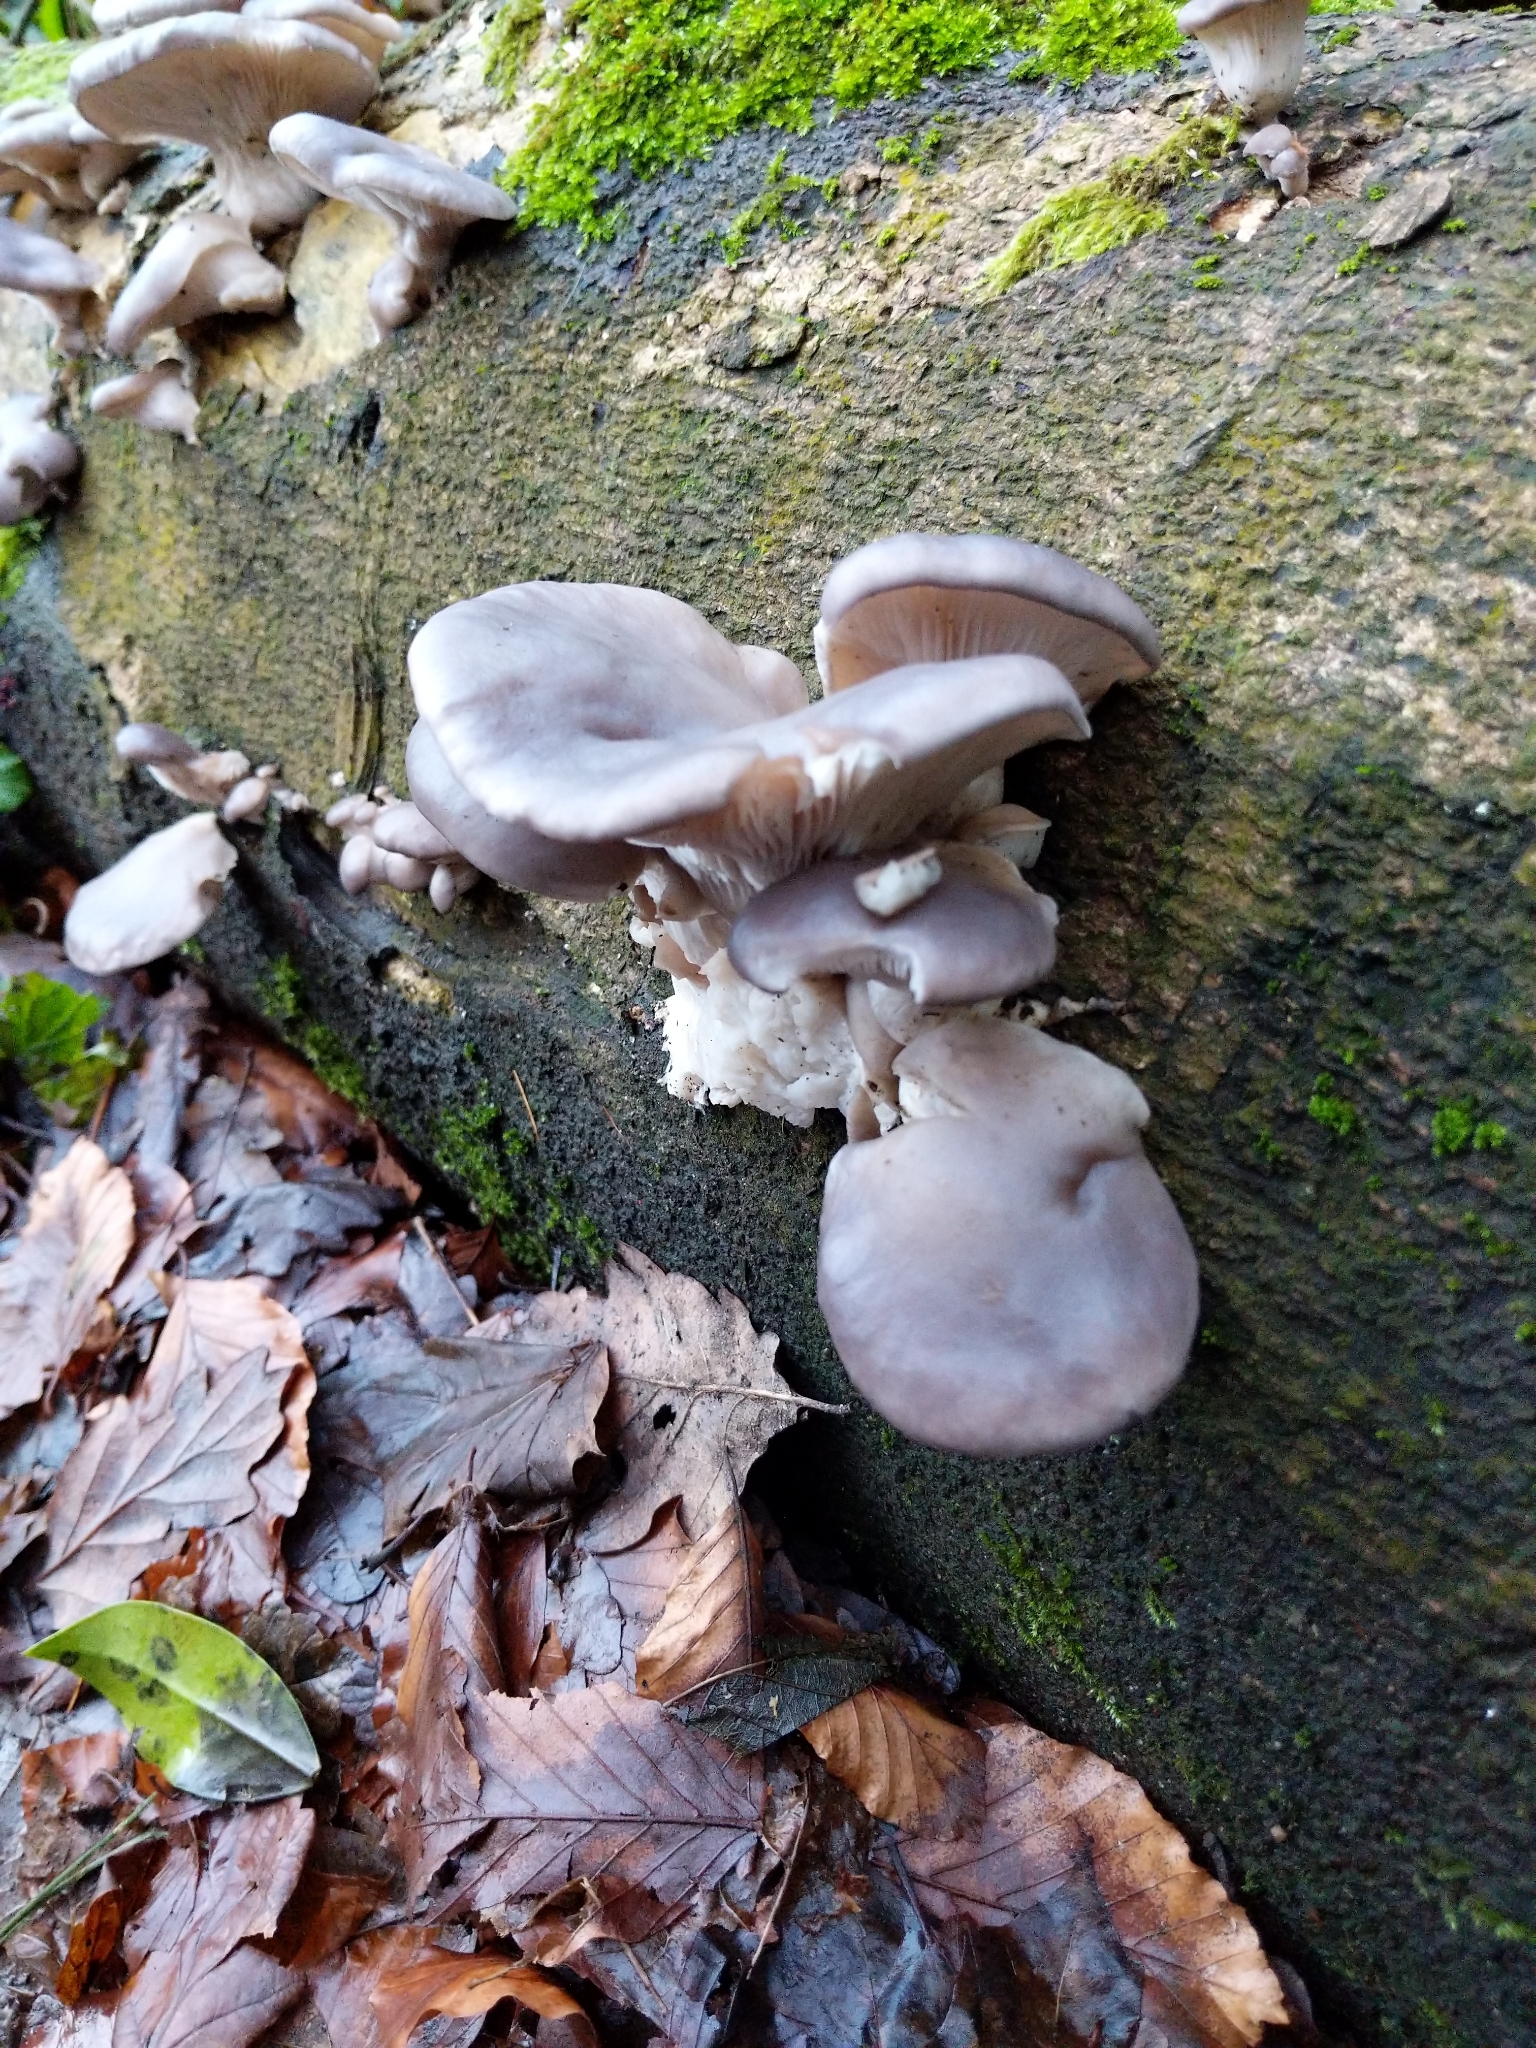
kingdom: Fungi
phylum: Basidiomycota
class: Agaricomycetes
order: Agaricales
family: Pleurotaceae
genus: Pleurotus
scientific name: Pleurotus ostreatus
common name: Oyster mushroom
